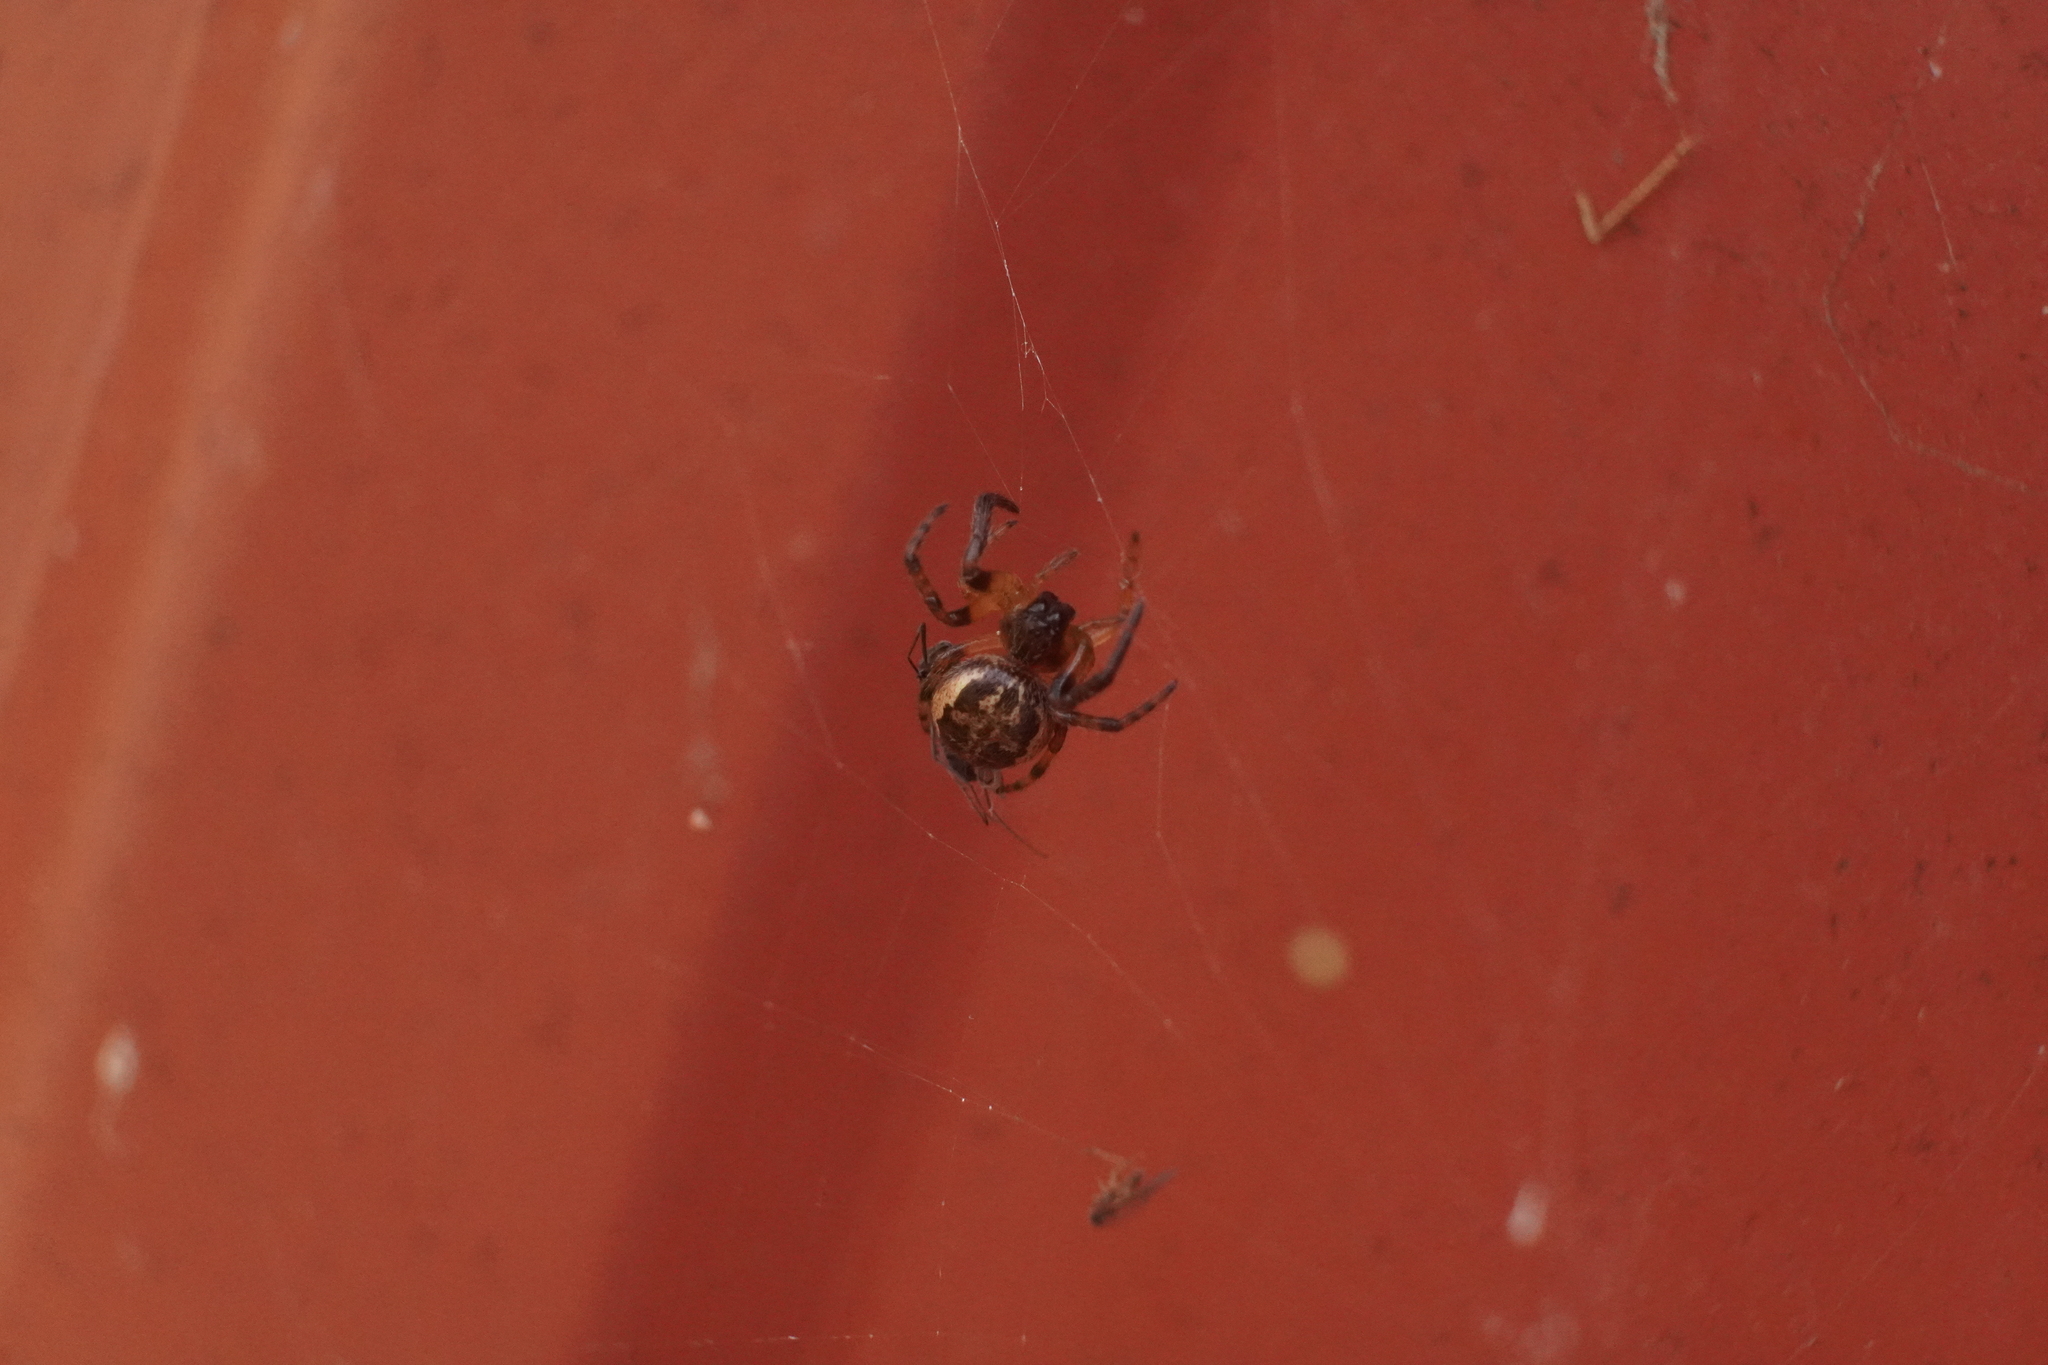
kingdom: Animalia
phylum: Arthropoda
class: Arachnida
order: Araneae
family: Araneidae
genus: Larinioides
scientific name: Larinioides cornutus
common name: Furrow orbweaver
